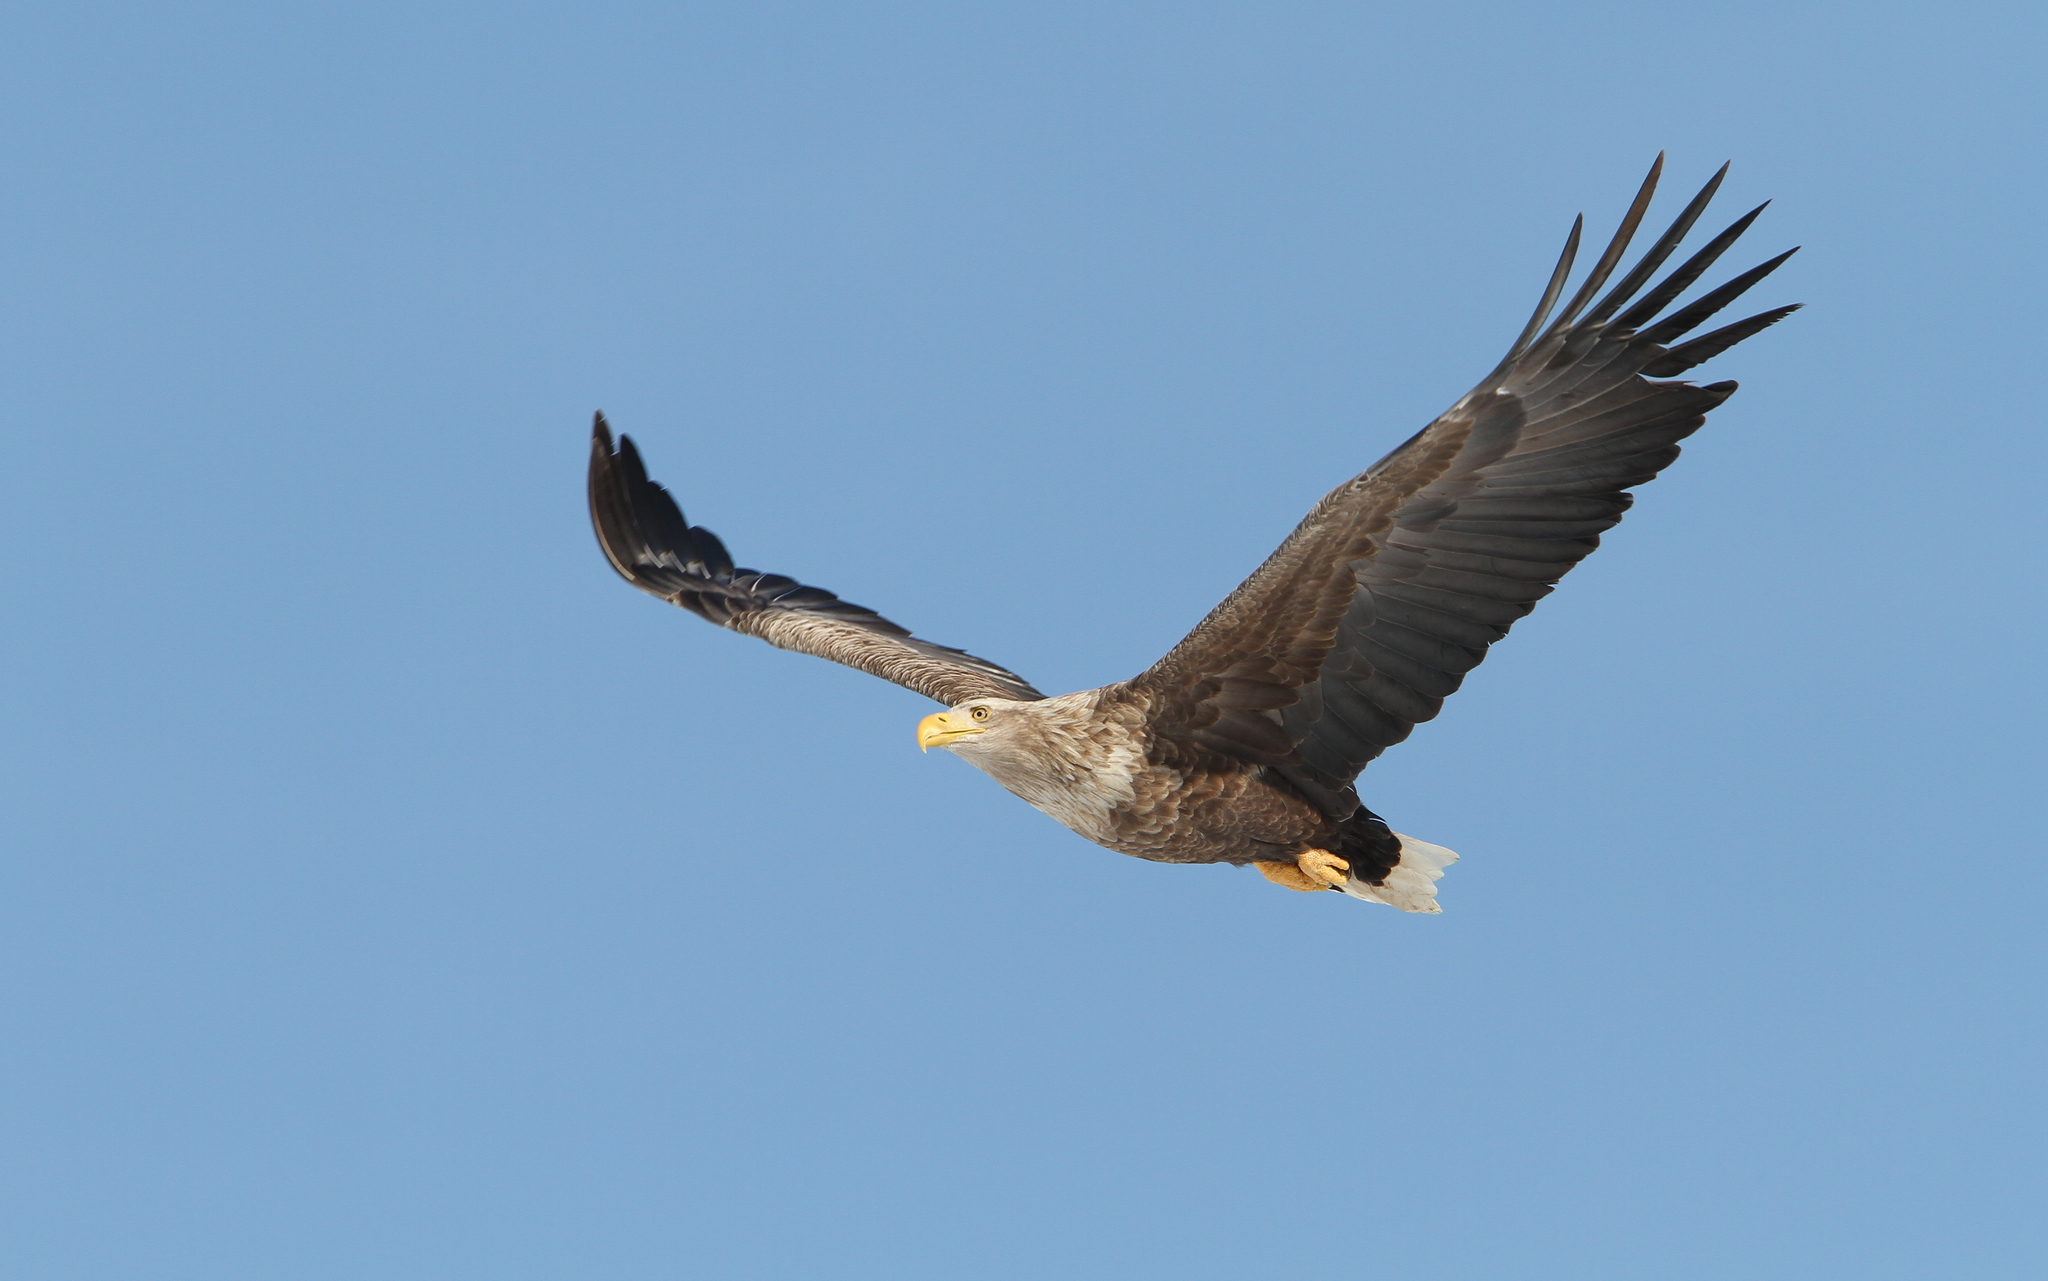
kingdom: Animalia
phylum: Chordata
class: Aves
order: Accipitriformes
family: Accipitridae
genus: Haliaeetus
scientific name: Haliaeetus albicilla
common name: White-tailed eagle
